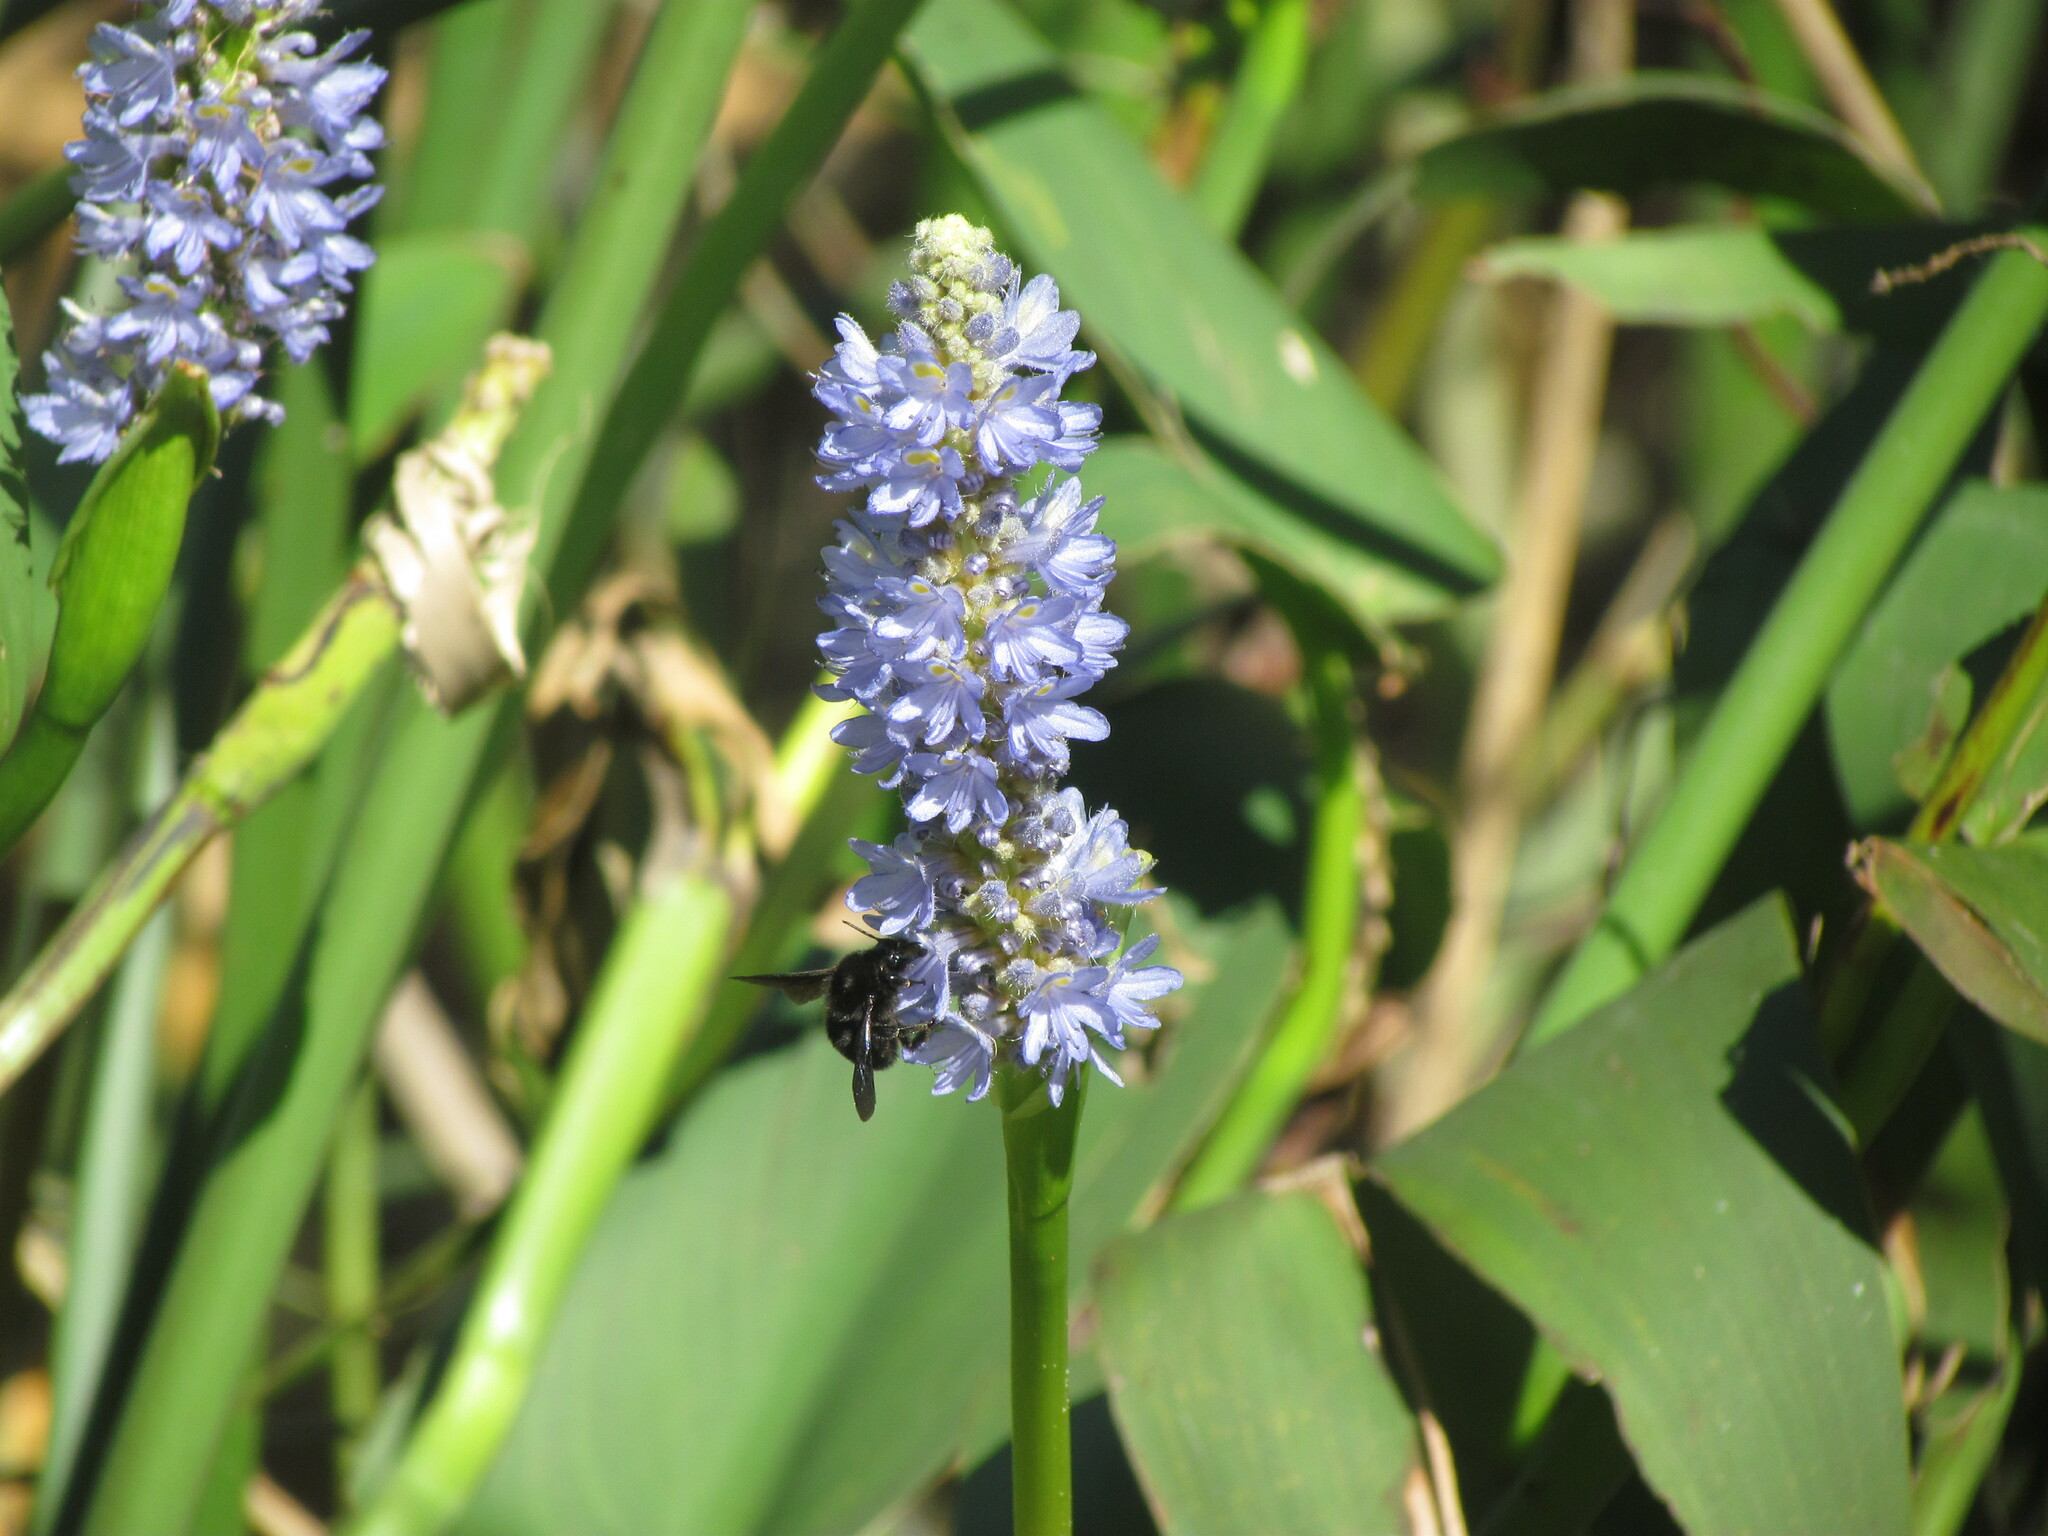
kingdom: Plantae
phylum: Tracheophyta
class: Liliopsida
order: Commelinales
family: Pontederiaceae
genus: Pontederia
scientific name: Pontederia cordata
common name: Pickerelweed
